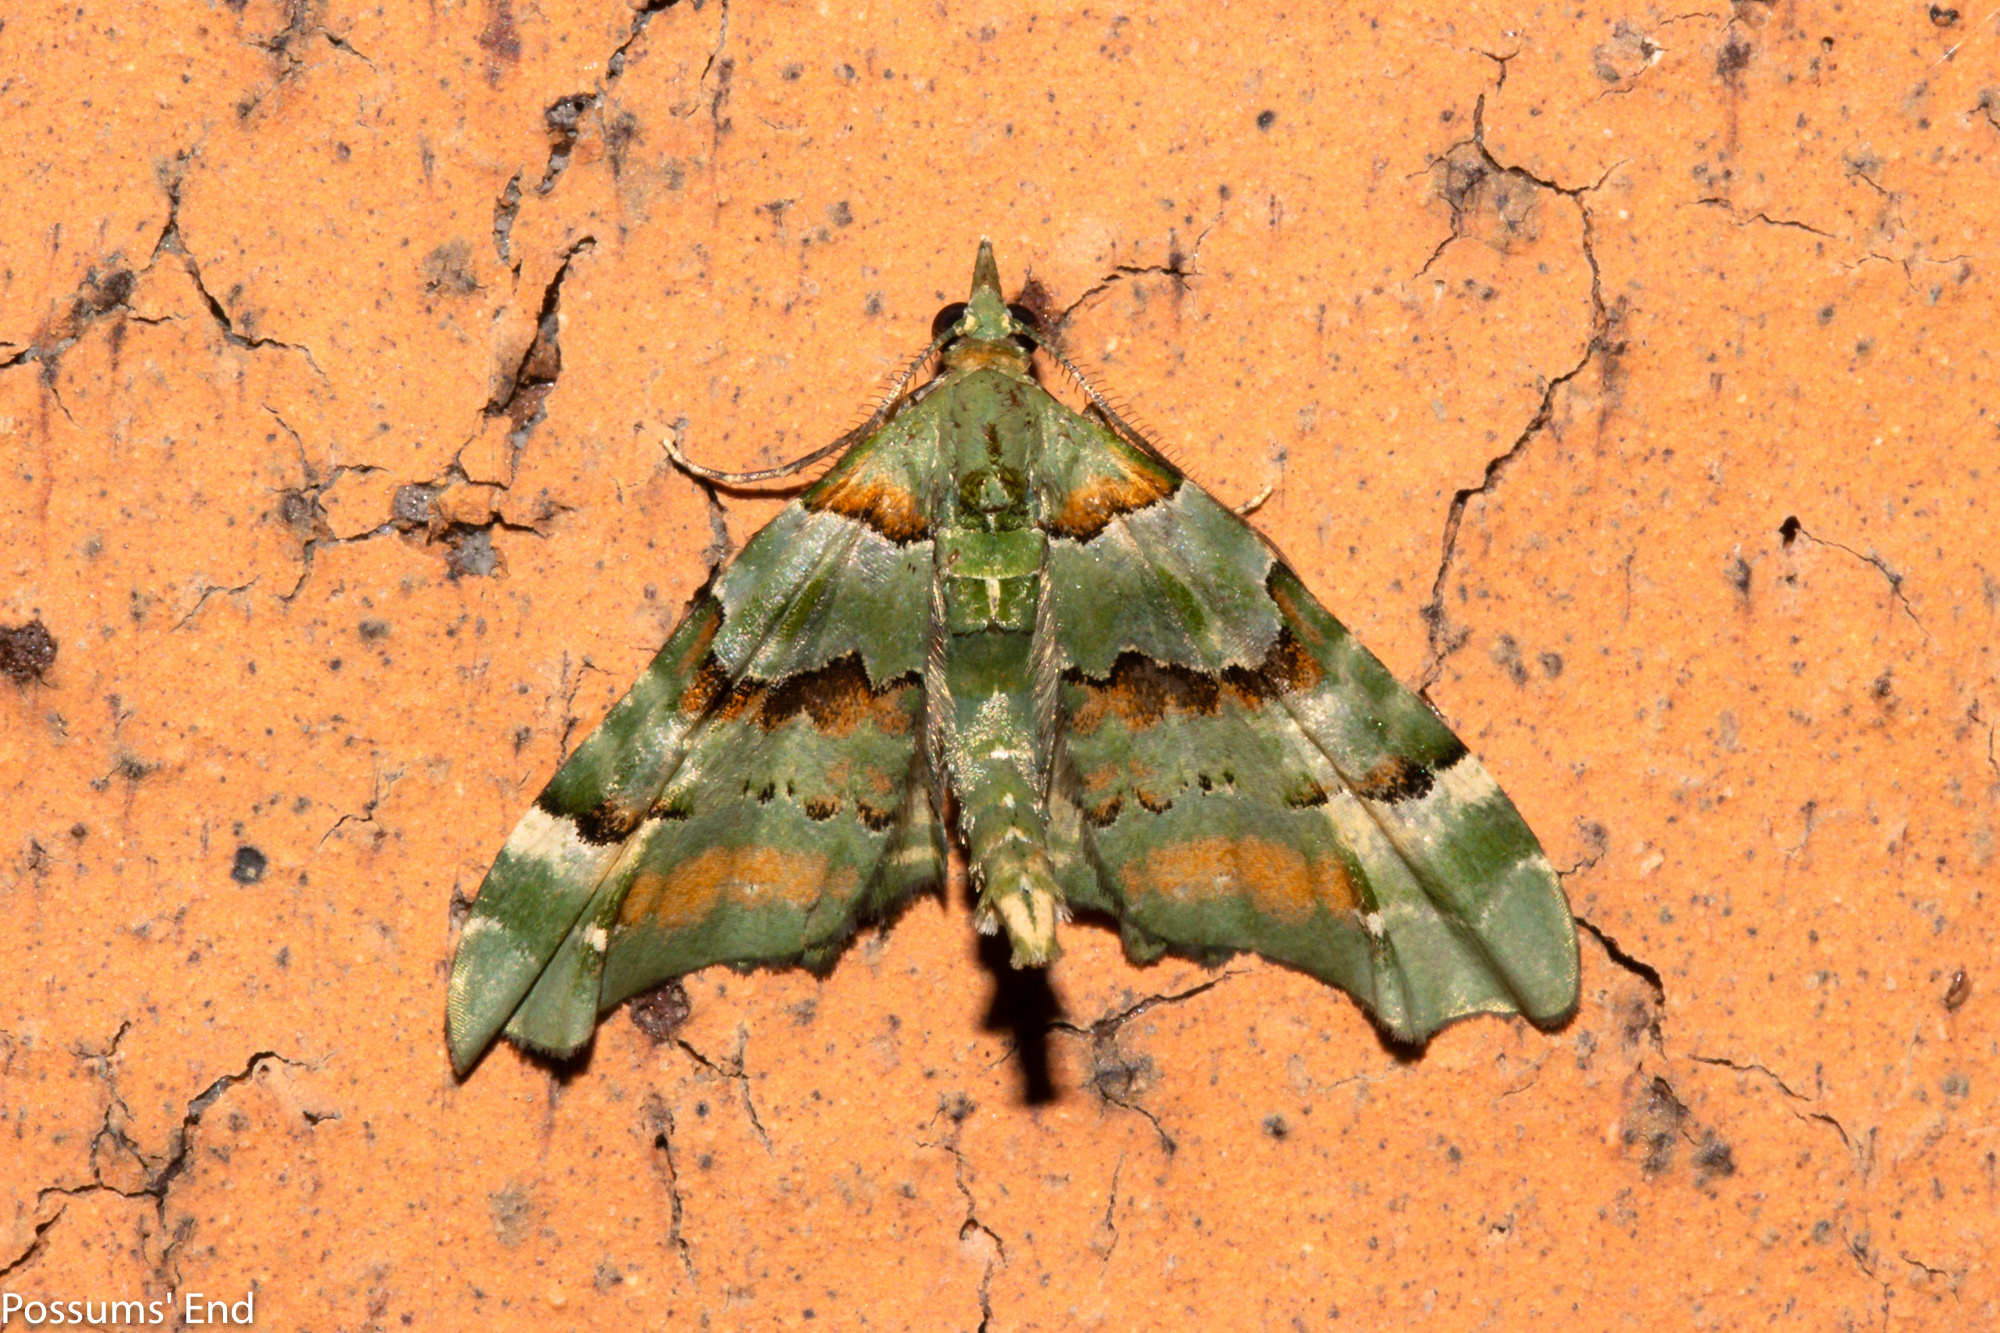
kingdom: Animalia
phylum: Arthropoda
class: Insecta
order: Lepidoptera
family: Geometridae
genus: Elvia
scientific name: Elvia glaucata
